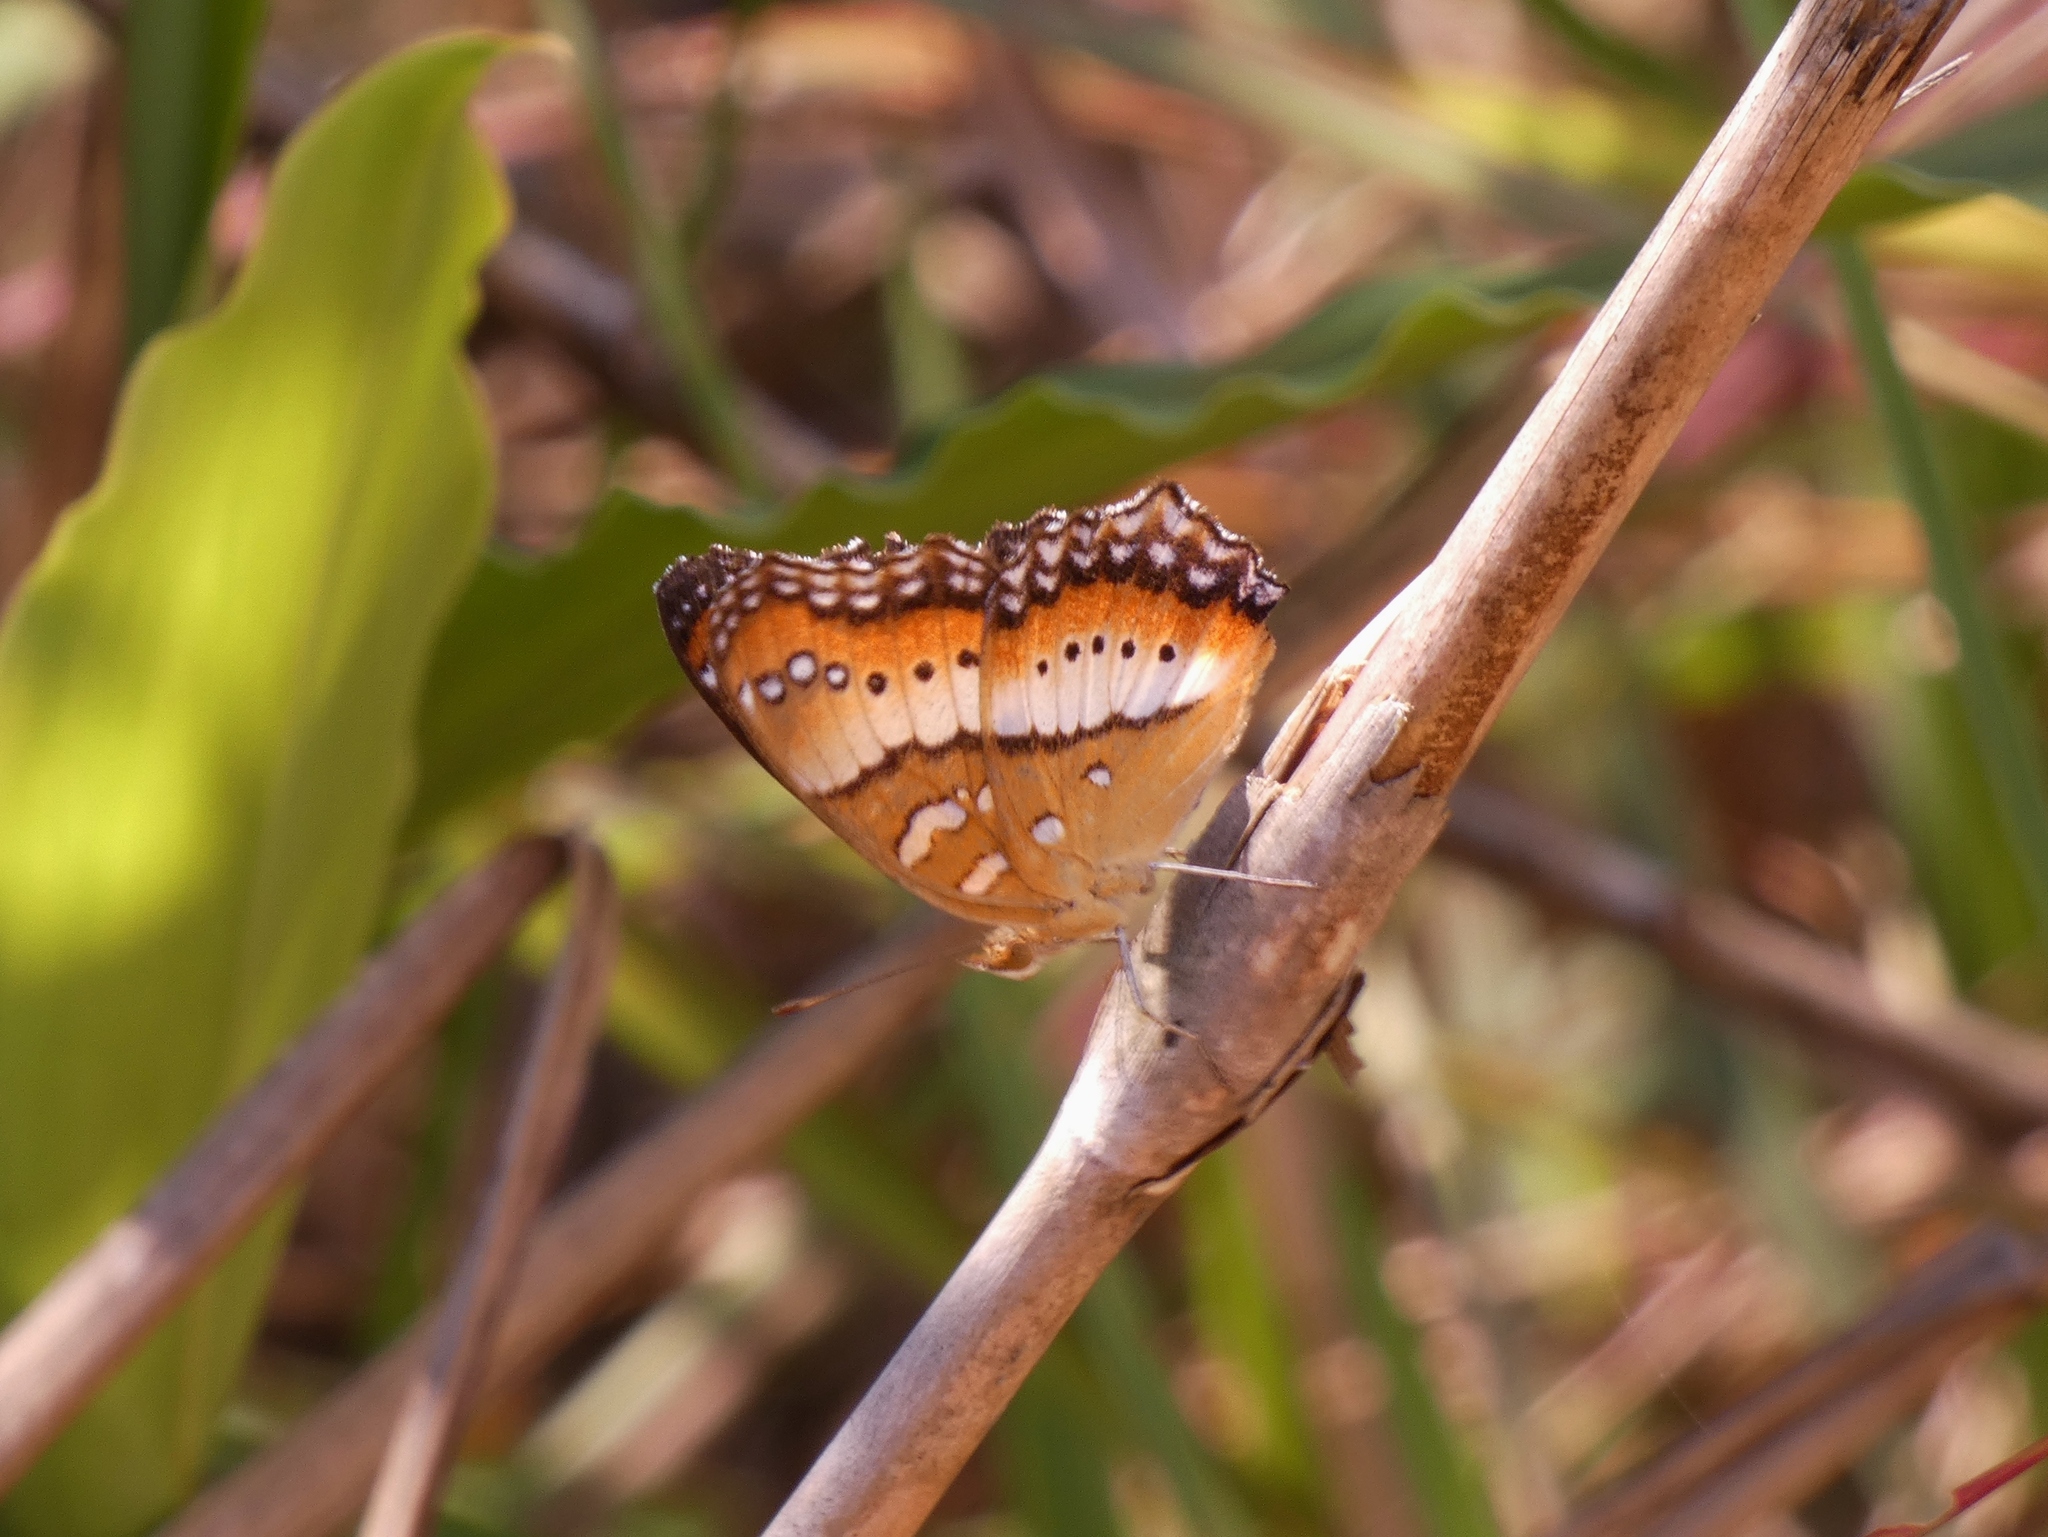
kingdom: Animalia
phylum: Arthropoda
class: Insecta
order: Lepidoptera
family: Nymphalidae
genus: Precis
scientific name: Precis ceryne
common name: Marsh commodore
